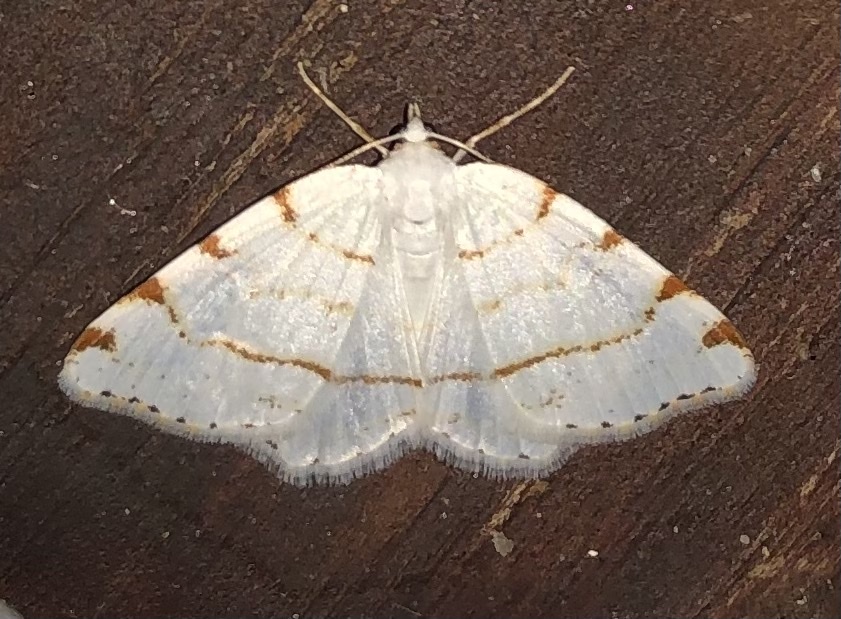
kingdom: Animalia
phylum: Arthropoda
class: Insecta
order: Lepidoptera
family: Geometridae
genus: Macaria
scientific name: Macaria pustularia
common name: Lesser maple spanworm moth
